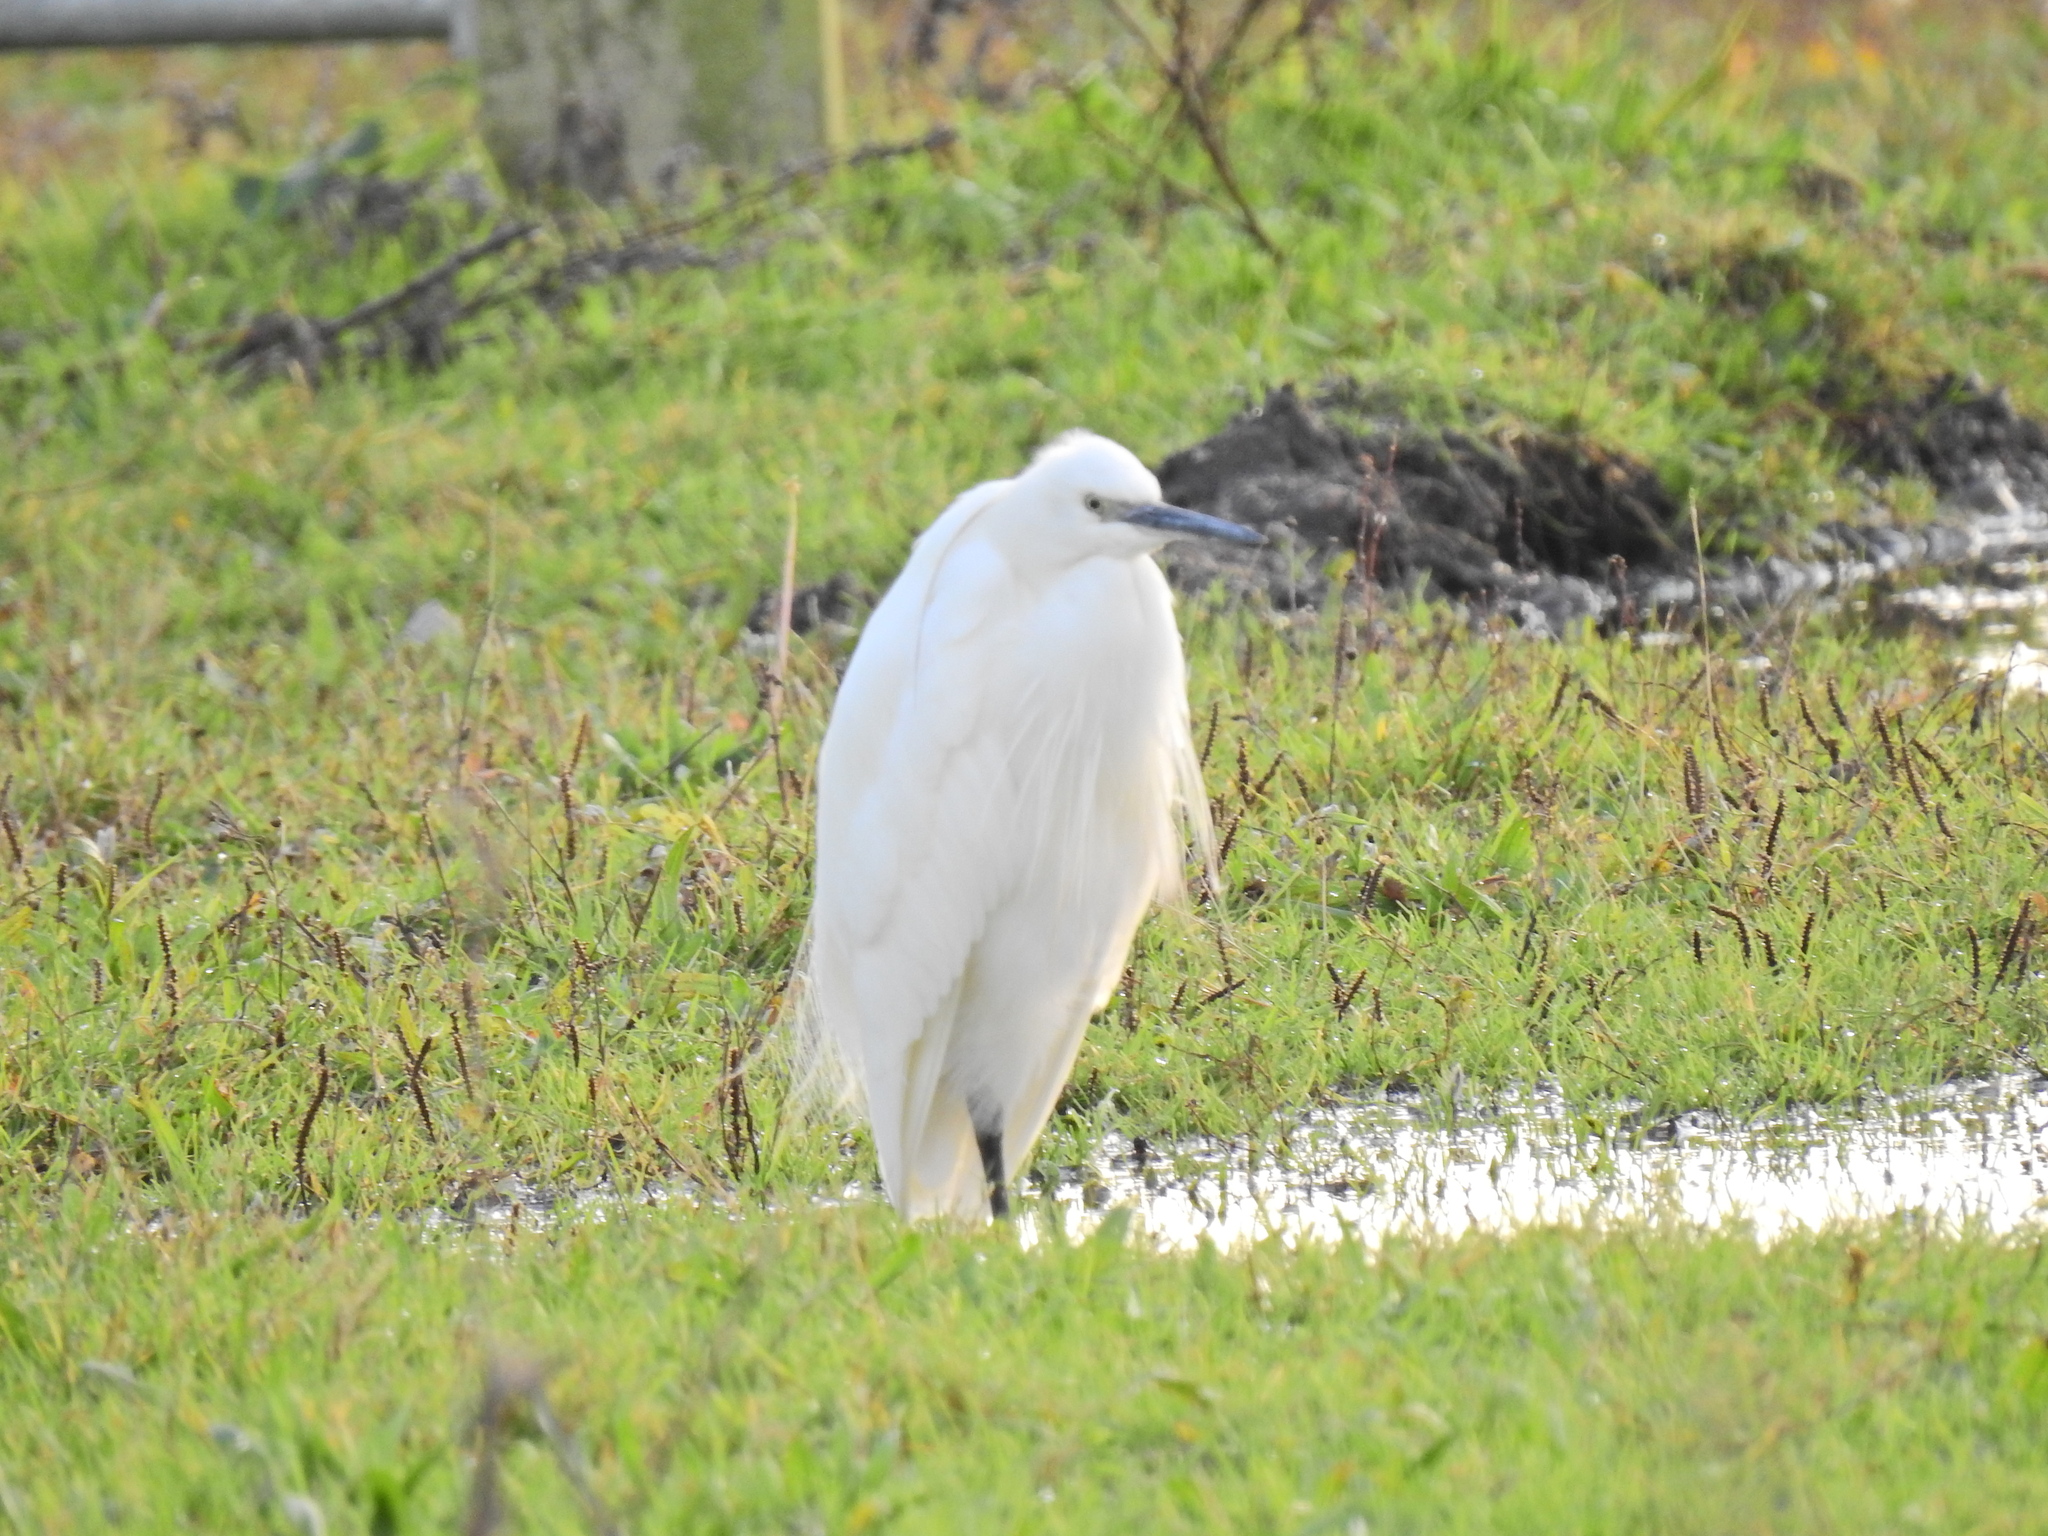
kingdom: Animalia
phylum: Chordata
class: Aves
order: Pelecaniformes
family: Ardeidae
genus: Egretta
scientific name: Egretta garzetta
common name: Little egret
